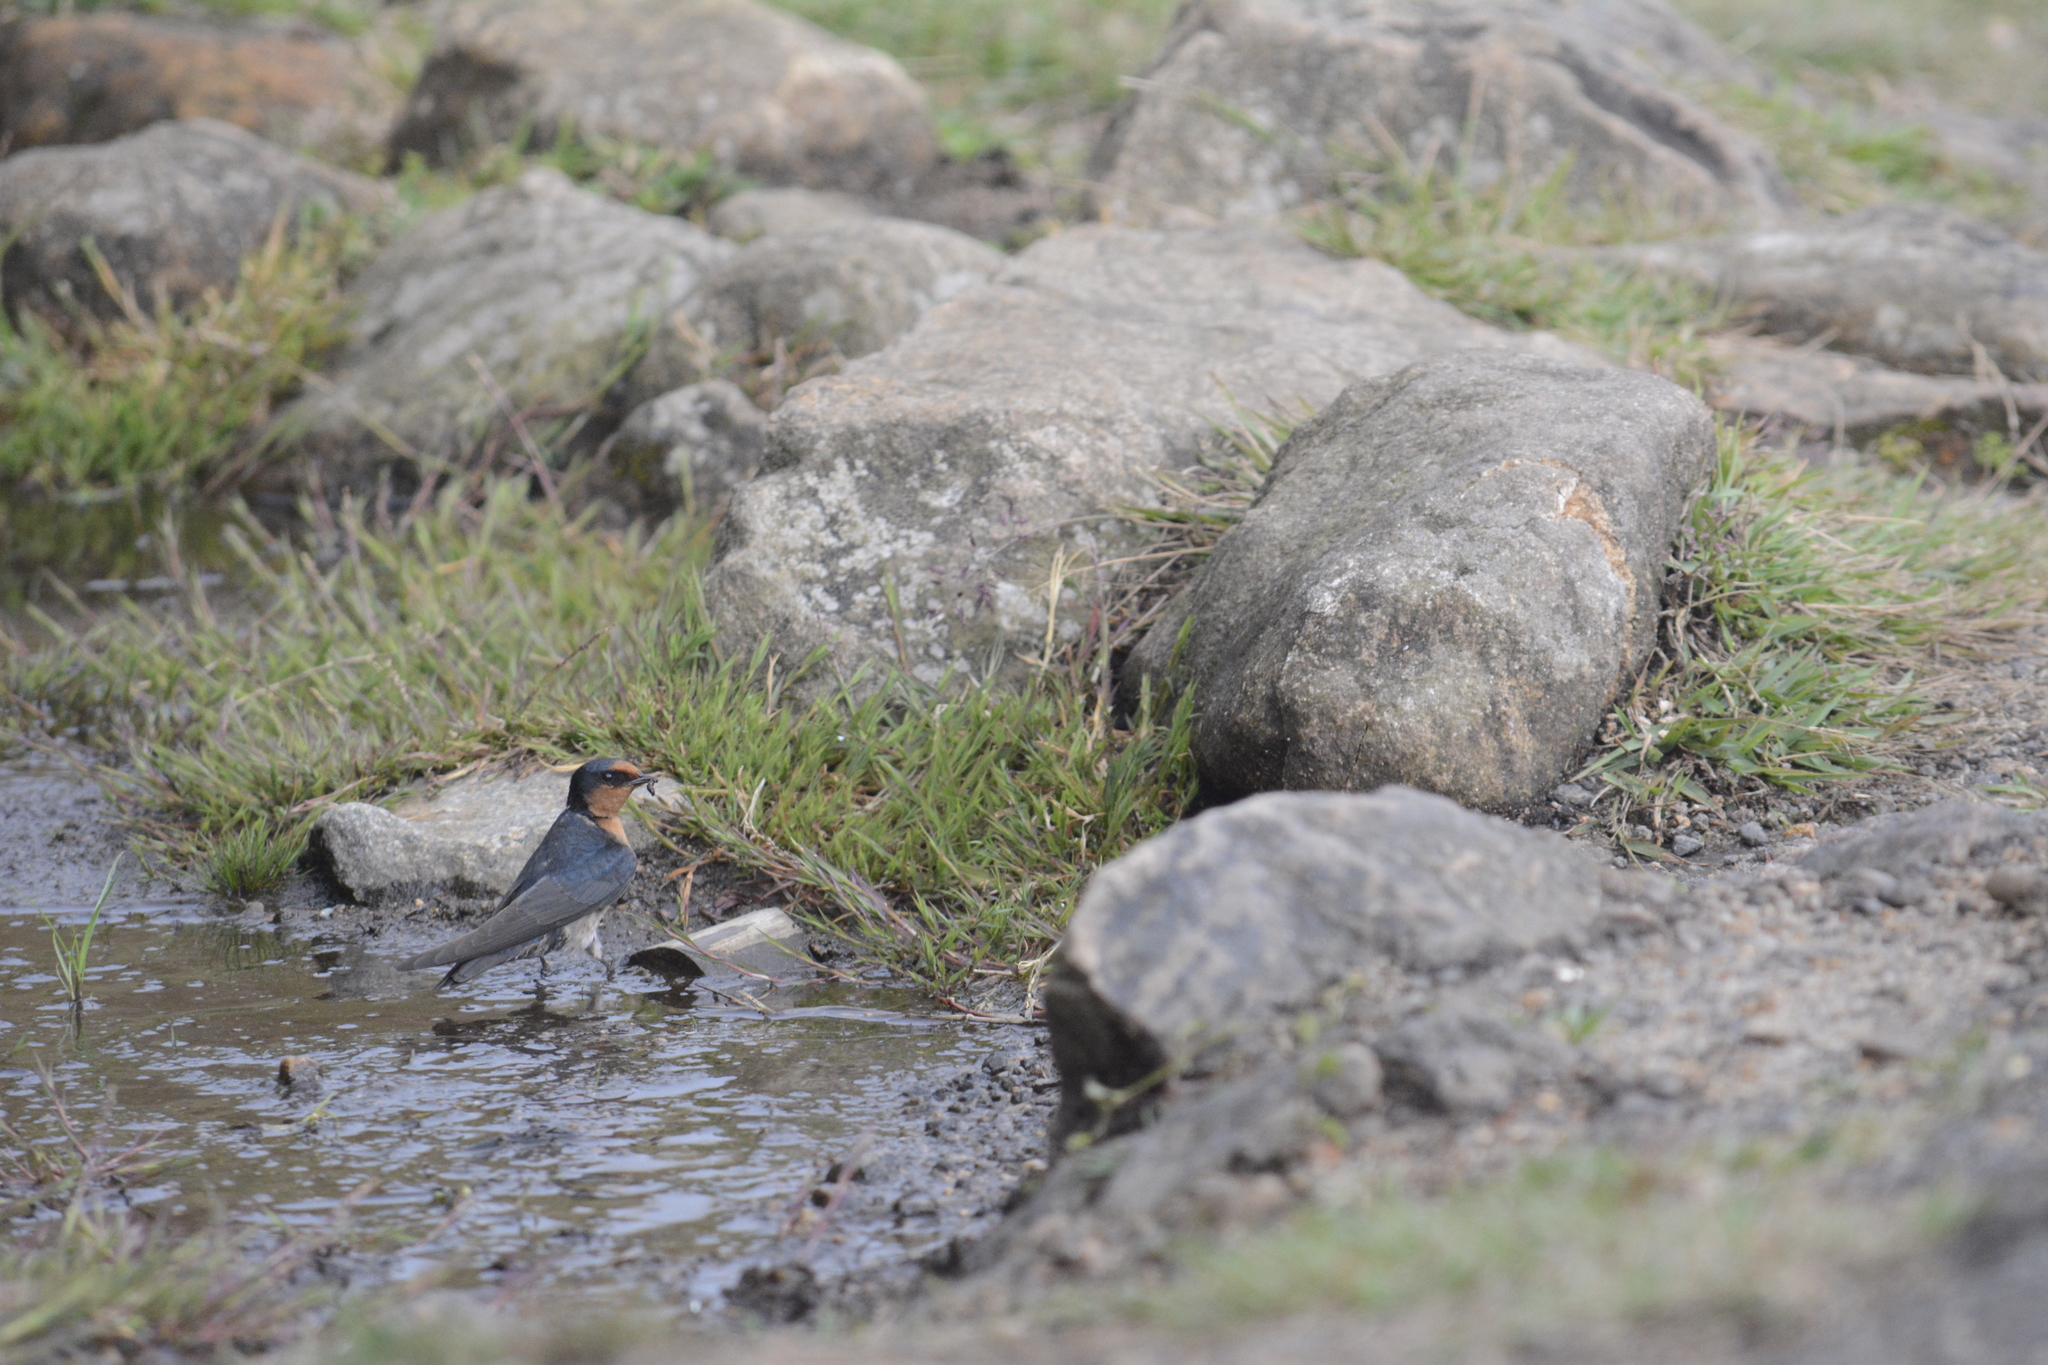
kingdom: Animalia
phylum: Chordata
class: Aves
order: Passeriformes
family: Hirundinidae
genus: Hirundo
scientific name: Hirundo rustica
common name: Barn swallow
